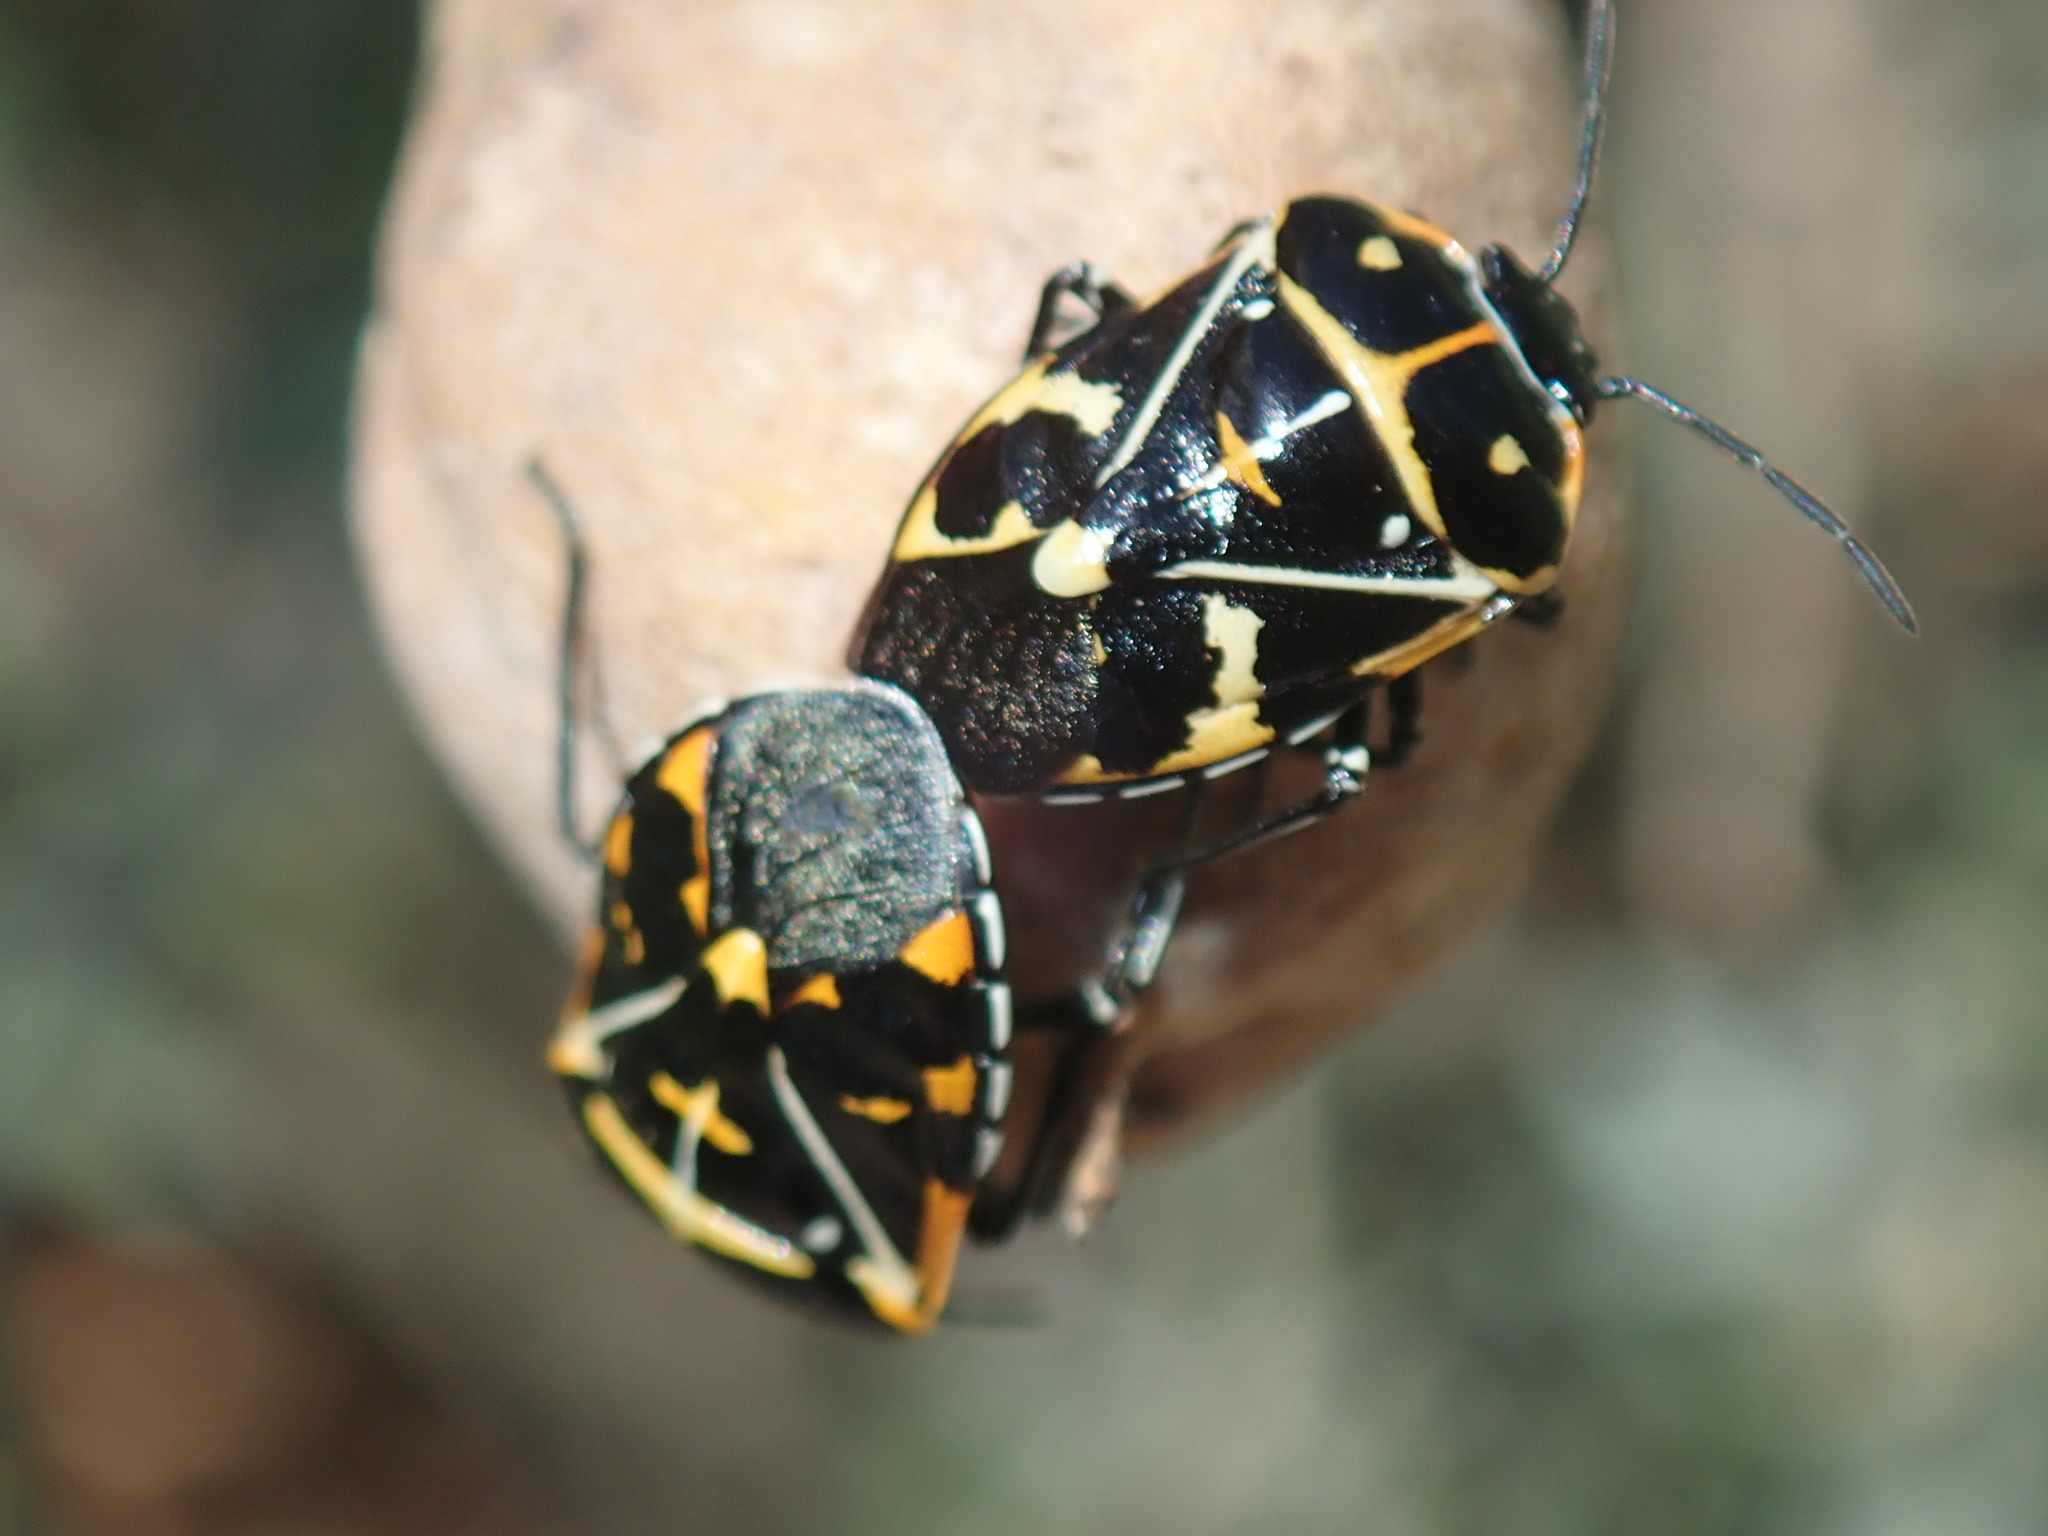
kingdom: Animalia
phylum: Arthropoda
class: Insecta
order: Hemiptera
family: Pentatomidae
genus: Murgantia
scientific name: Murgantia histrionica
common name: Harlequin bug
